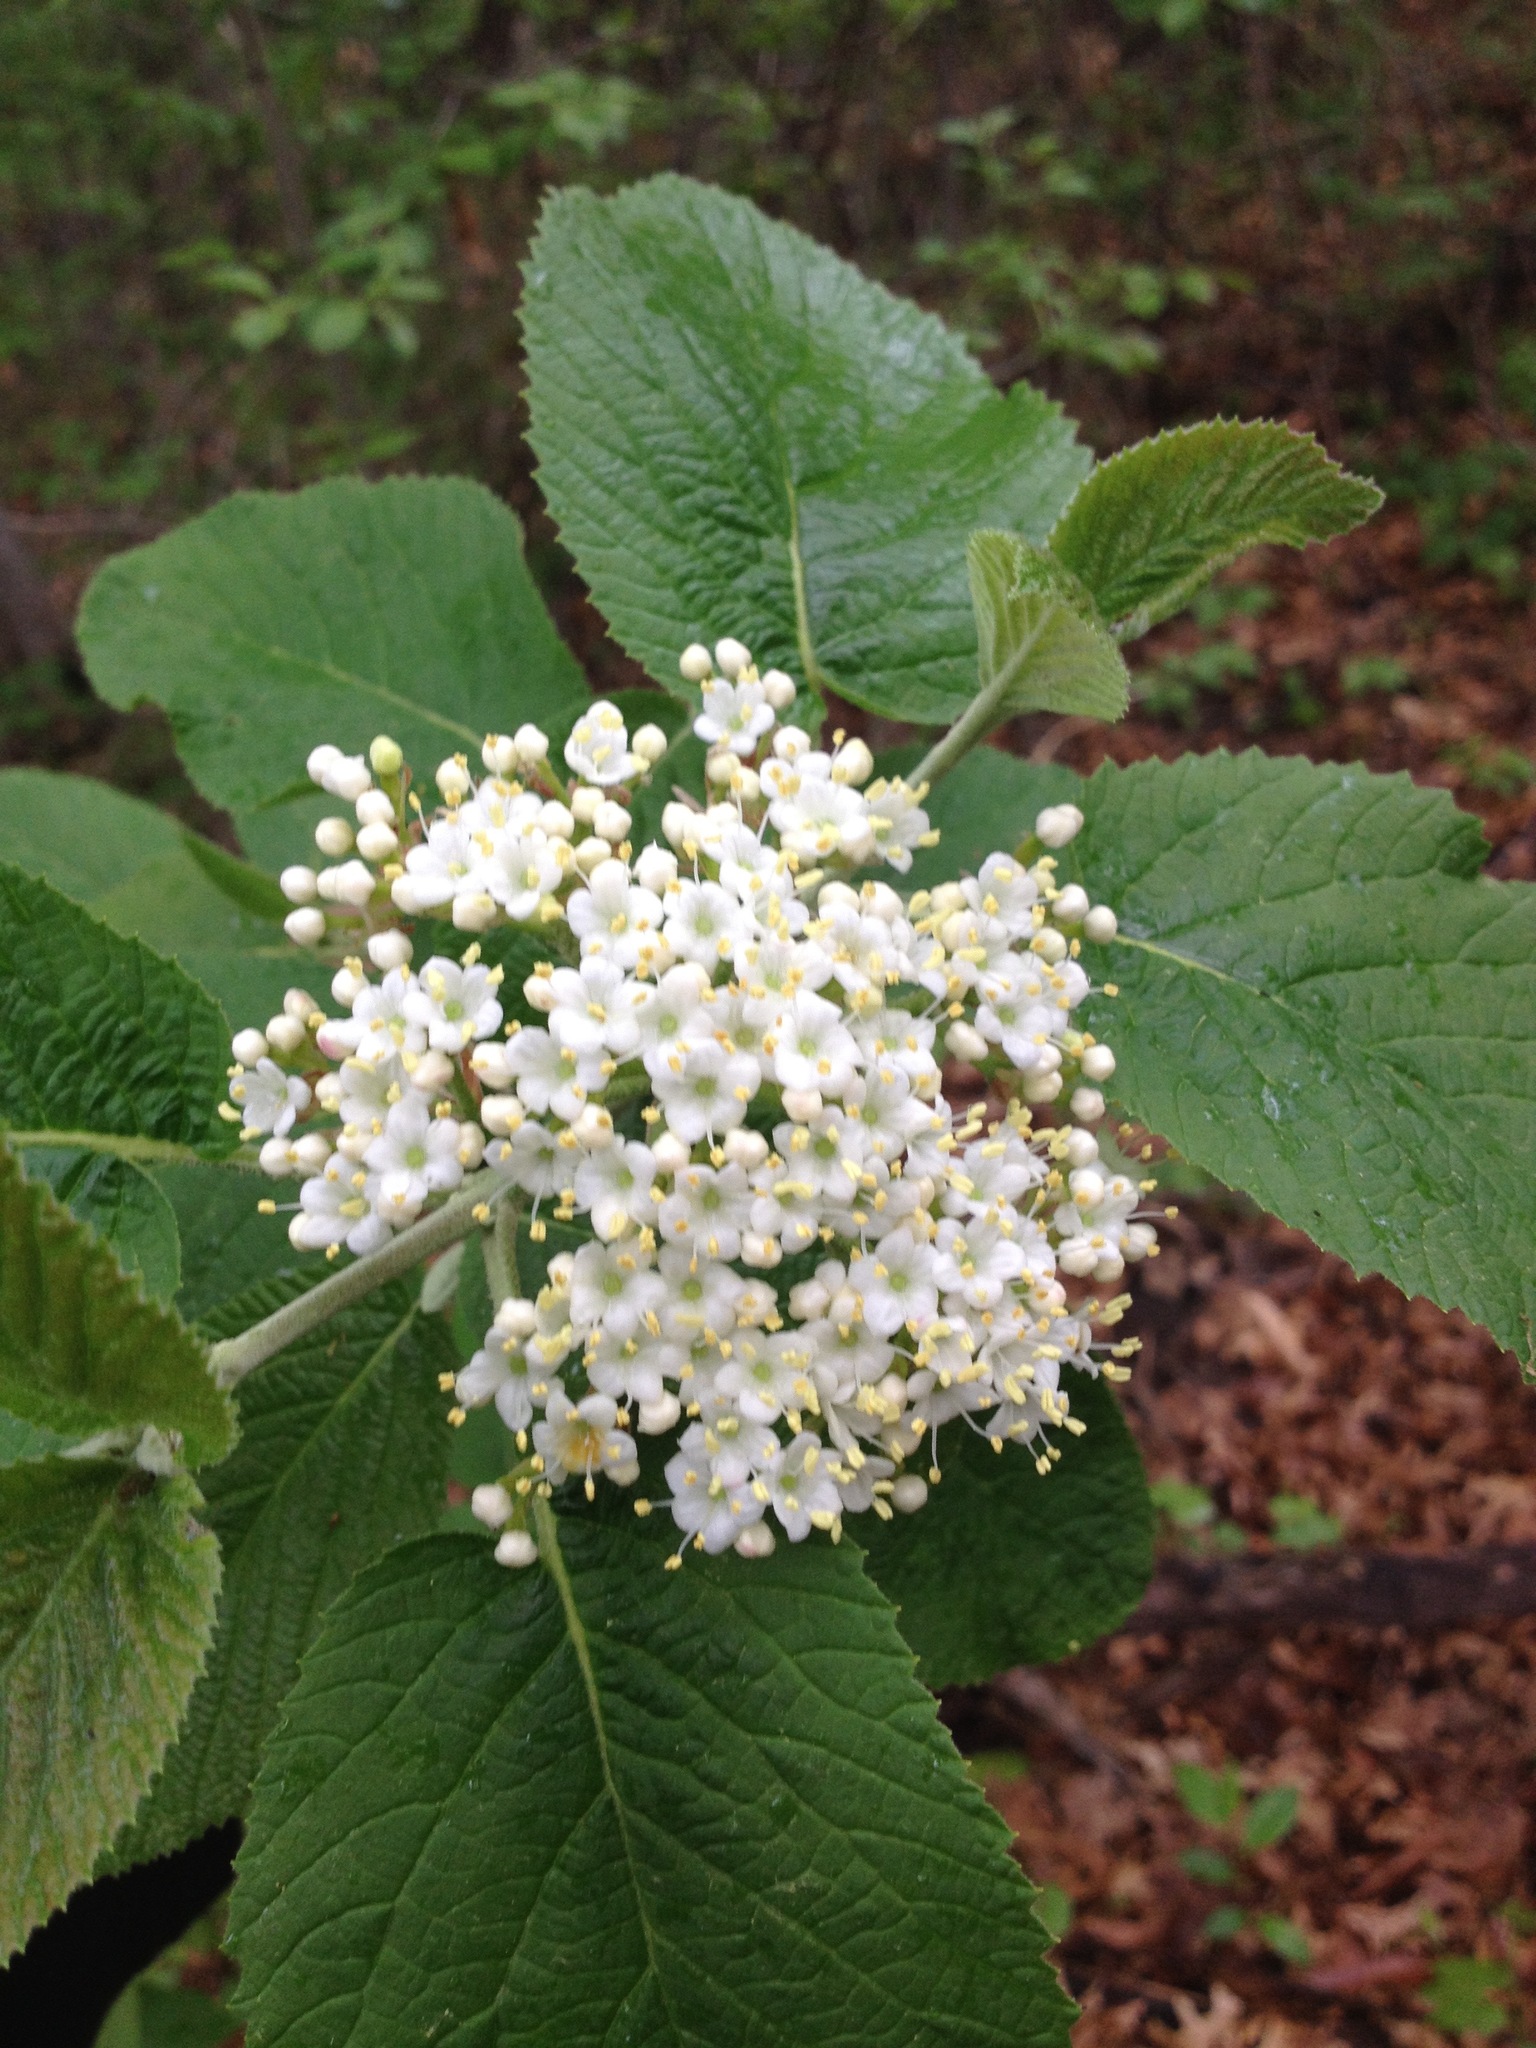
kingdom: Plantae
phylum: Tracheophyta
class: Magnoliopsida
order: Dipsacales
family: Viburnaceae
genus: Viburnum
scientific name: Viburnum lantana
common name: Wayfaring tree
